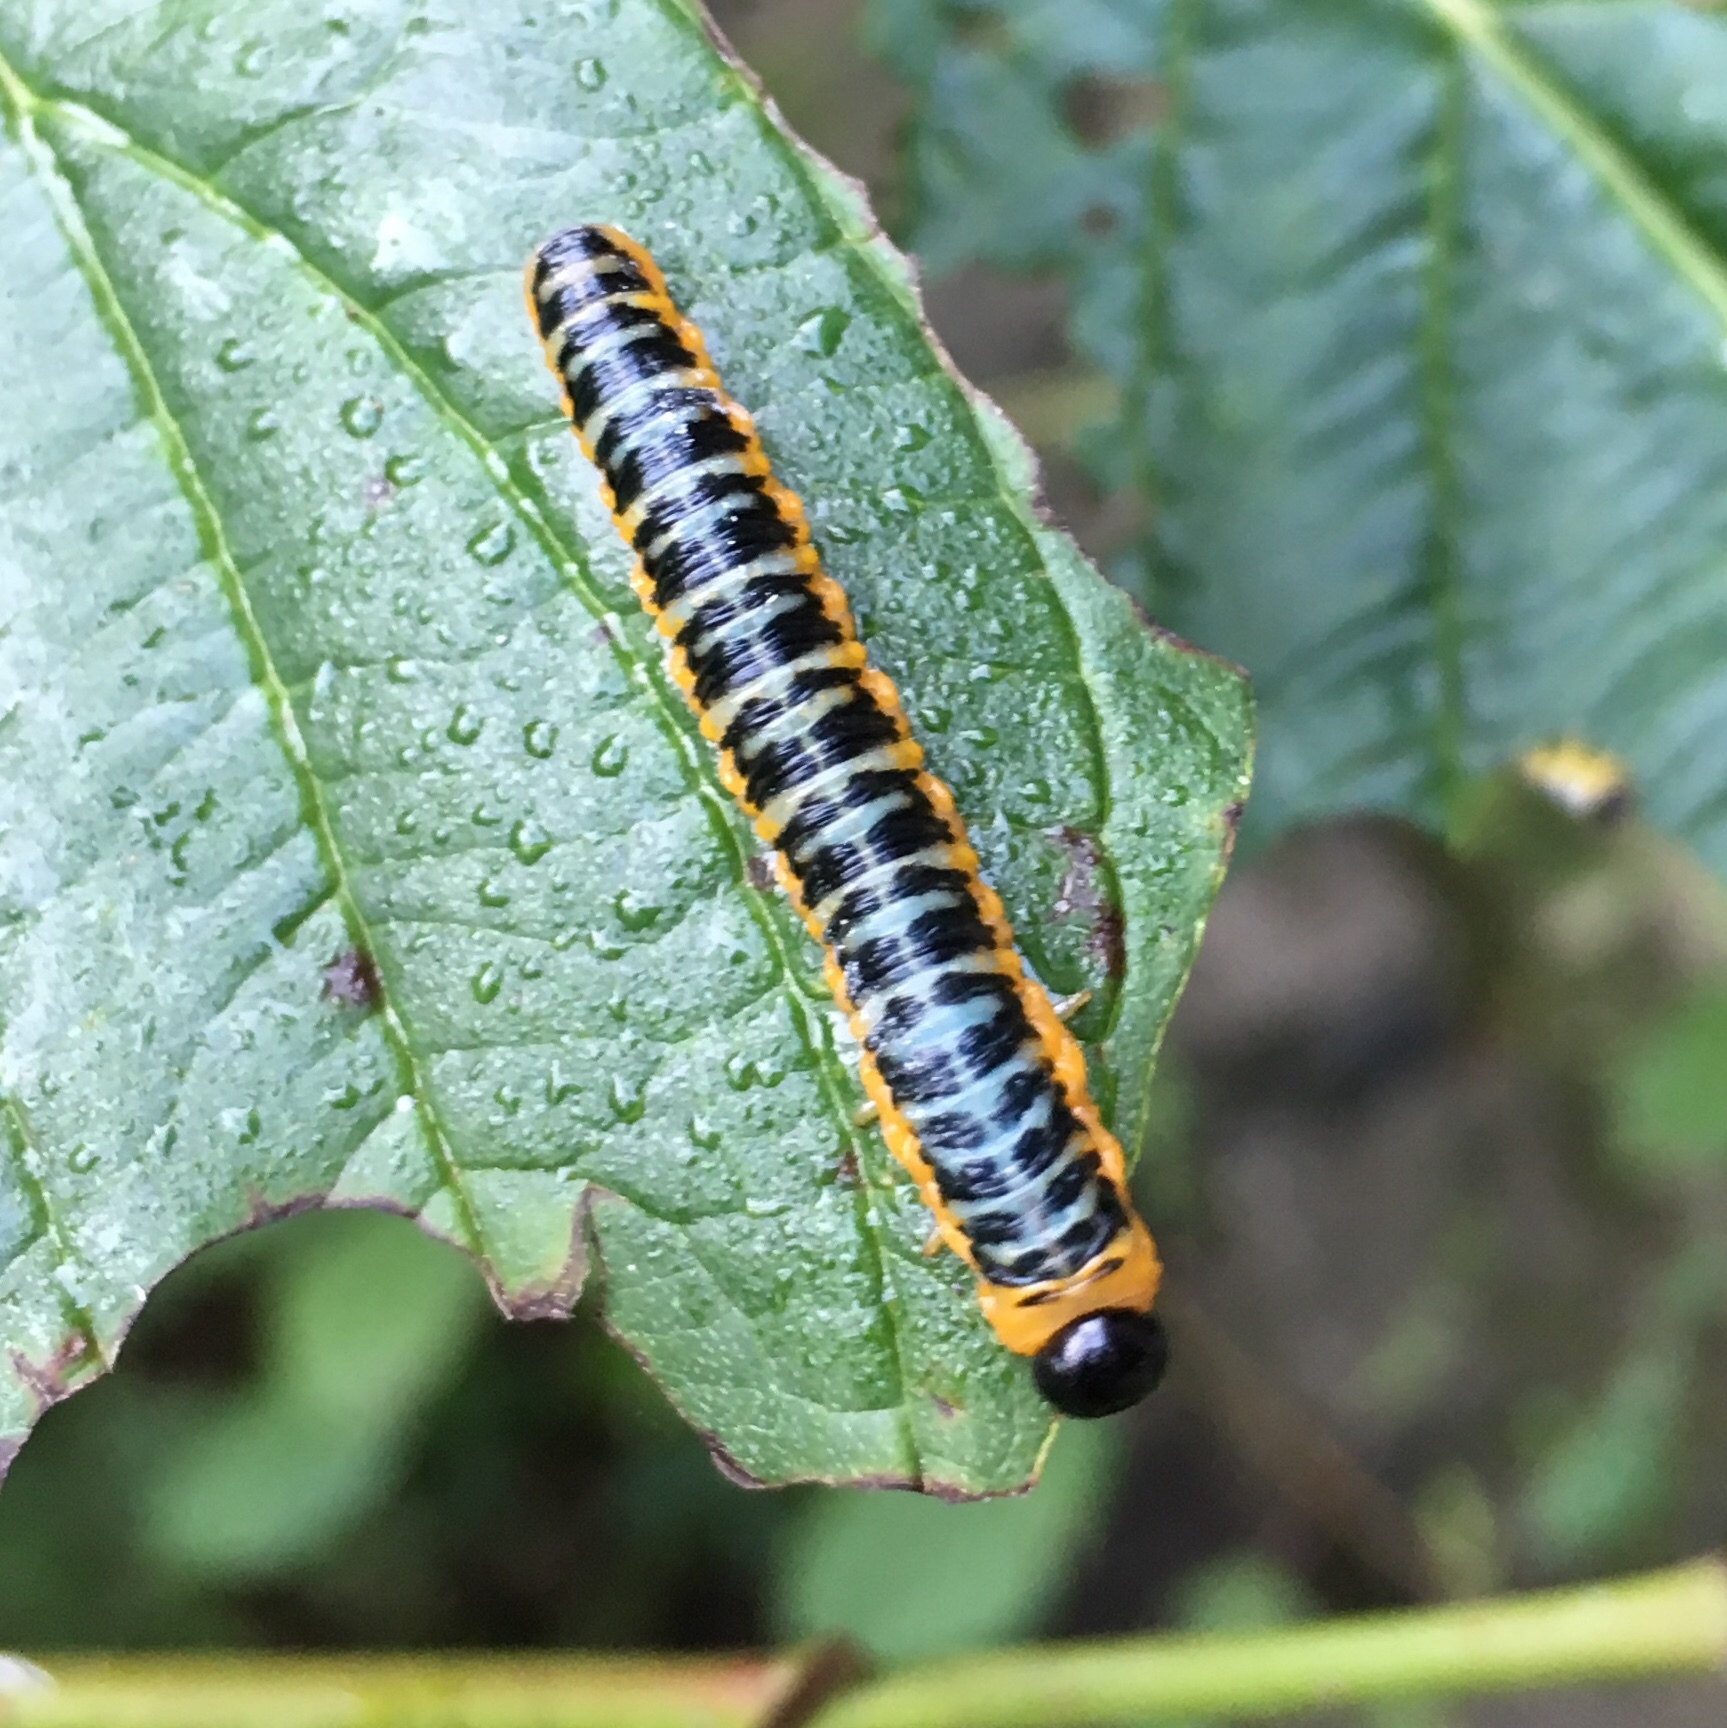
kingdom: Animalia
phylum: Arthropoda
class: Insecta
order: Hymenoptera
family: Tenthredinidae
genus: Macremphytus
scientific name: Macremphytus
